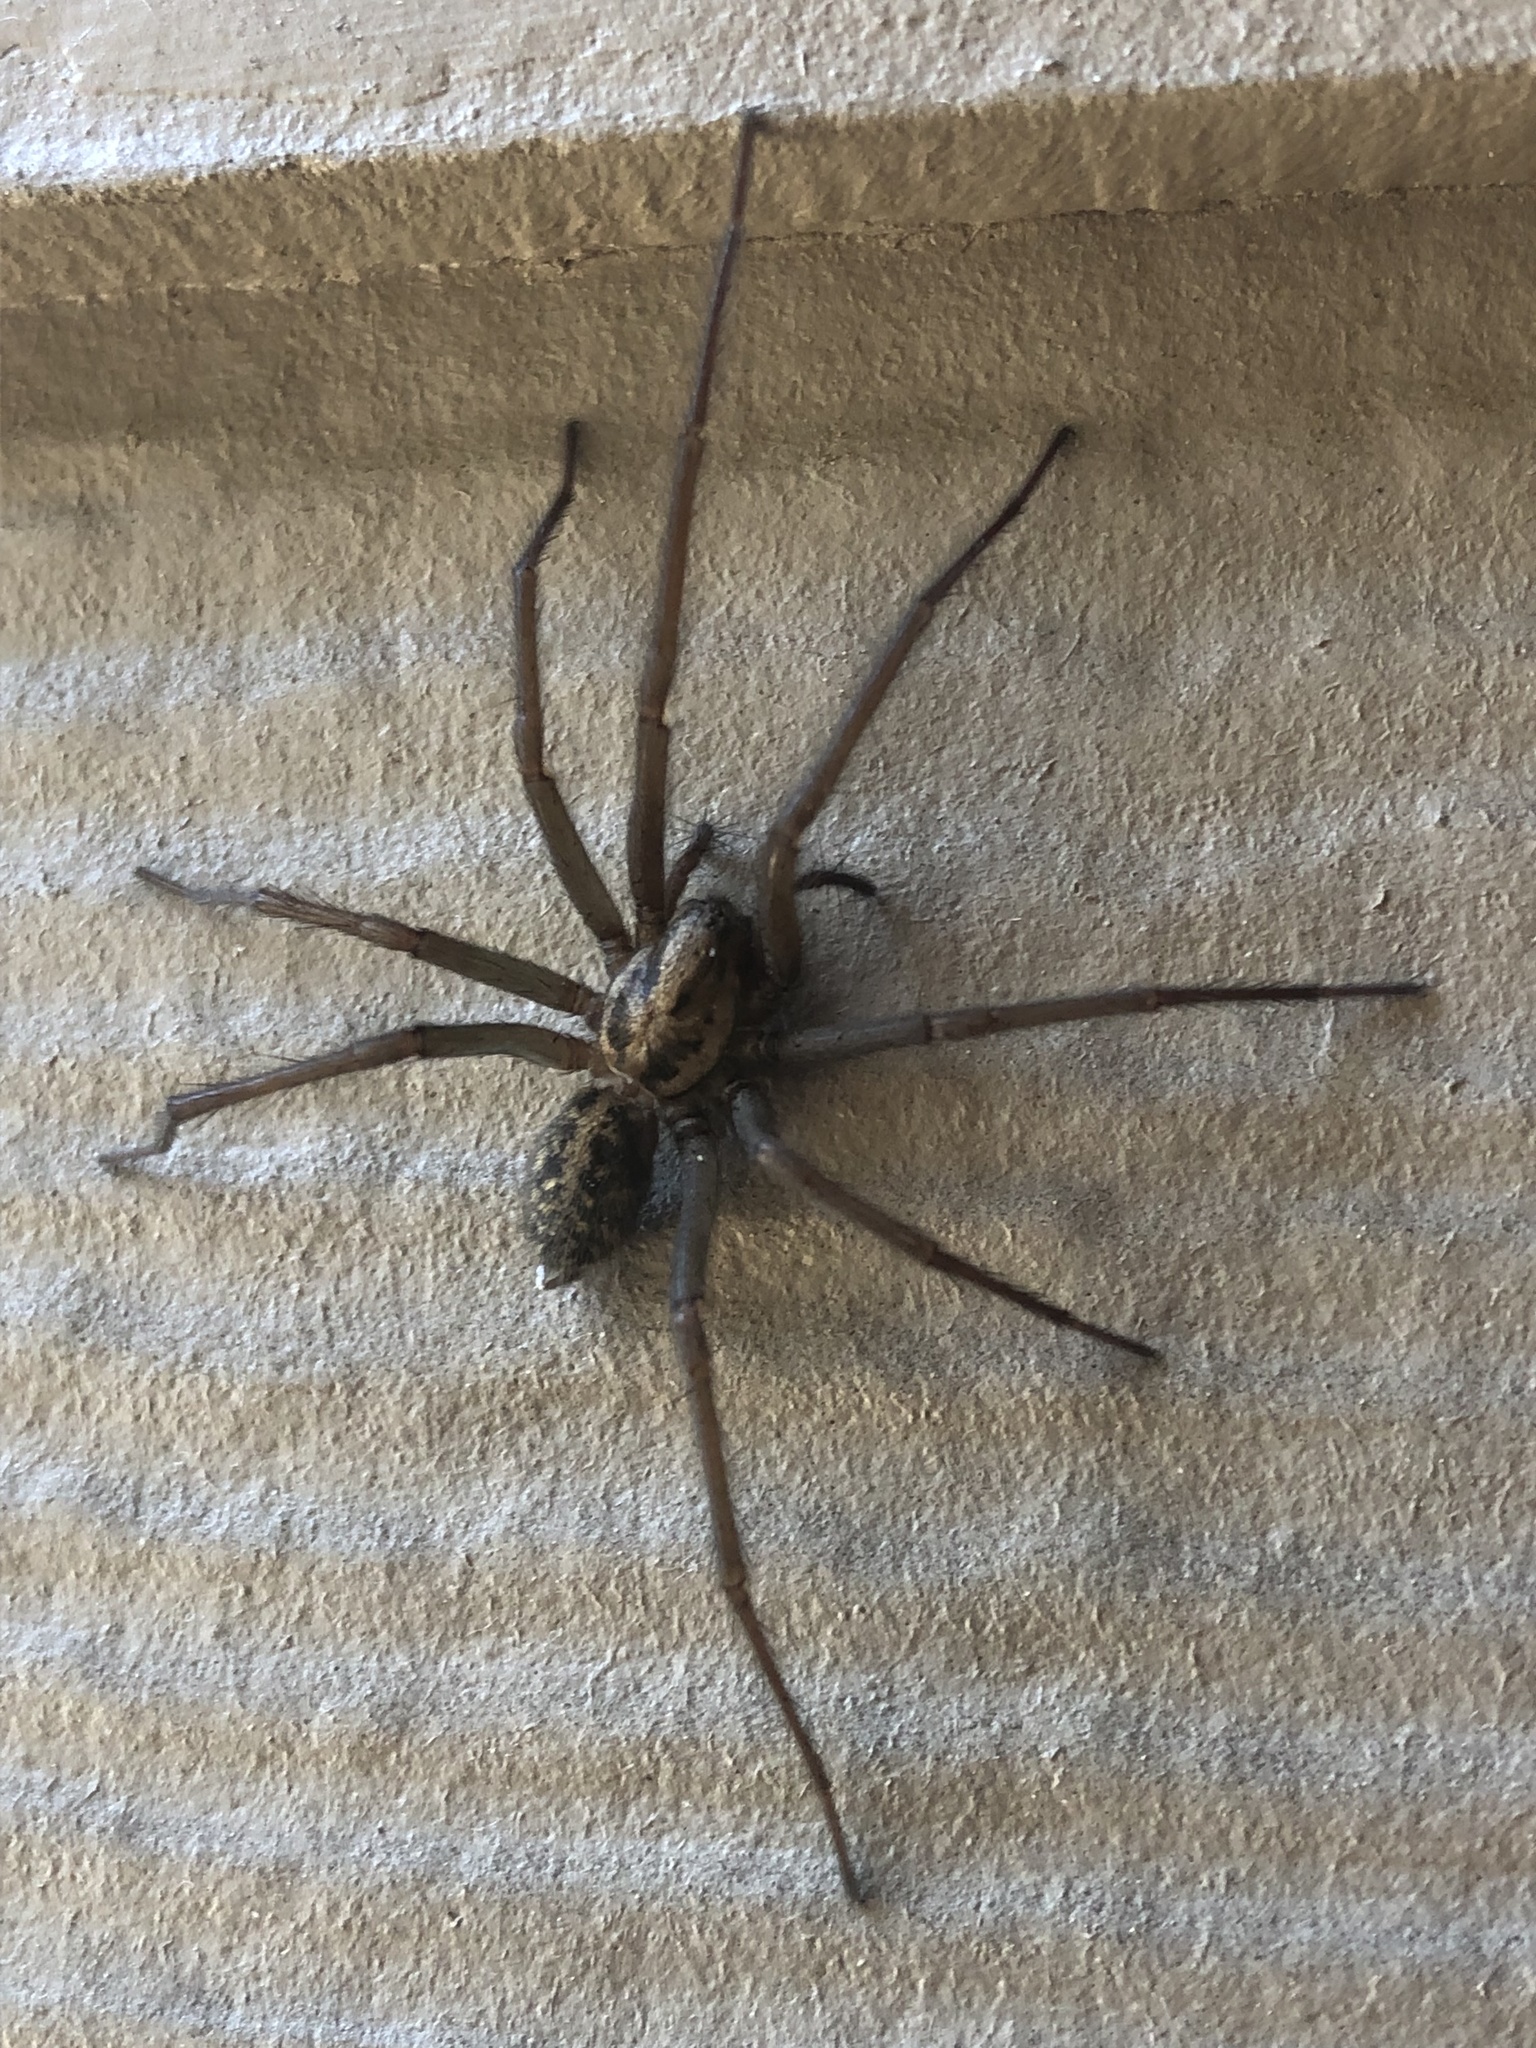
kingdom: Animalia
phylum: Arthropoda
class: Arachnida
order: Araneae
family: Agelenidae
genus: Eratigena
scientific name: Eratigena duellica
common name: Giant house spider
